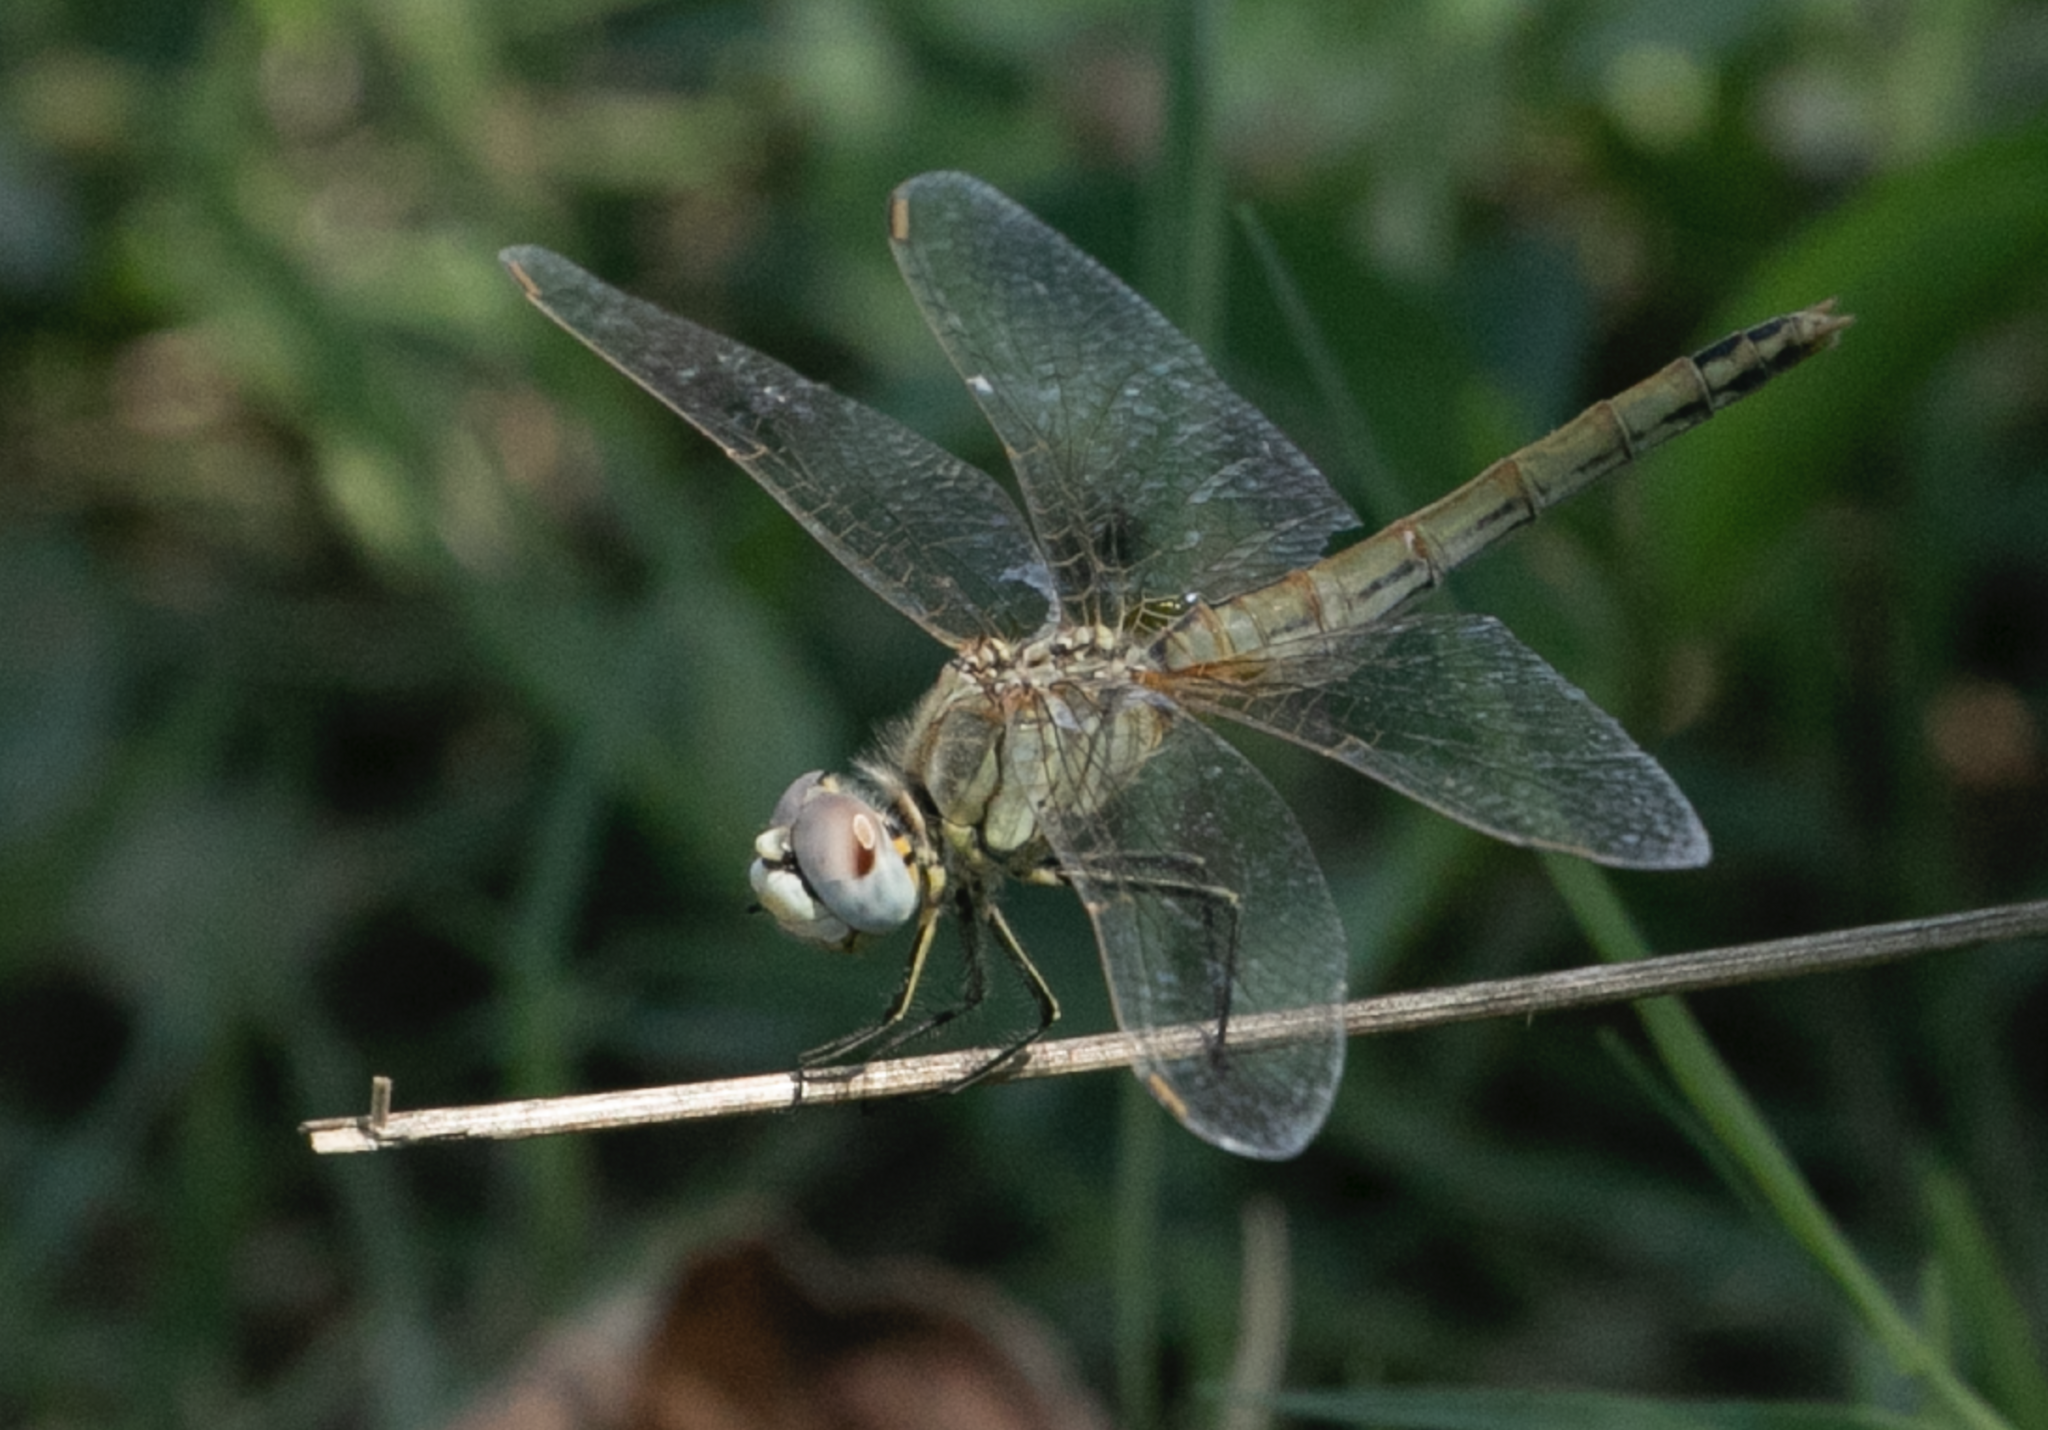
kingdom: Animalia
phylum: Arthropoda
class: Insecta
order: Odonata
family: Libellulidae
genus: Sympetrum
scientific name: Sympetrum fonscolombii
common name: Red-veined darter
